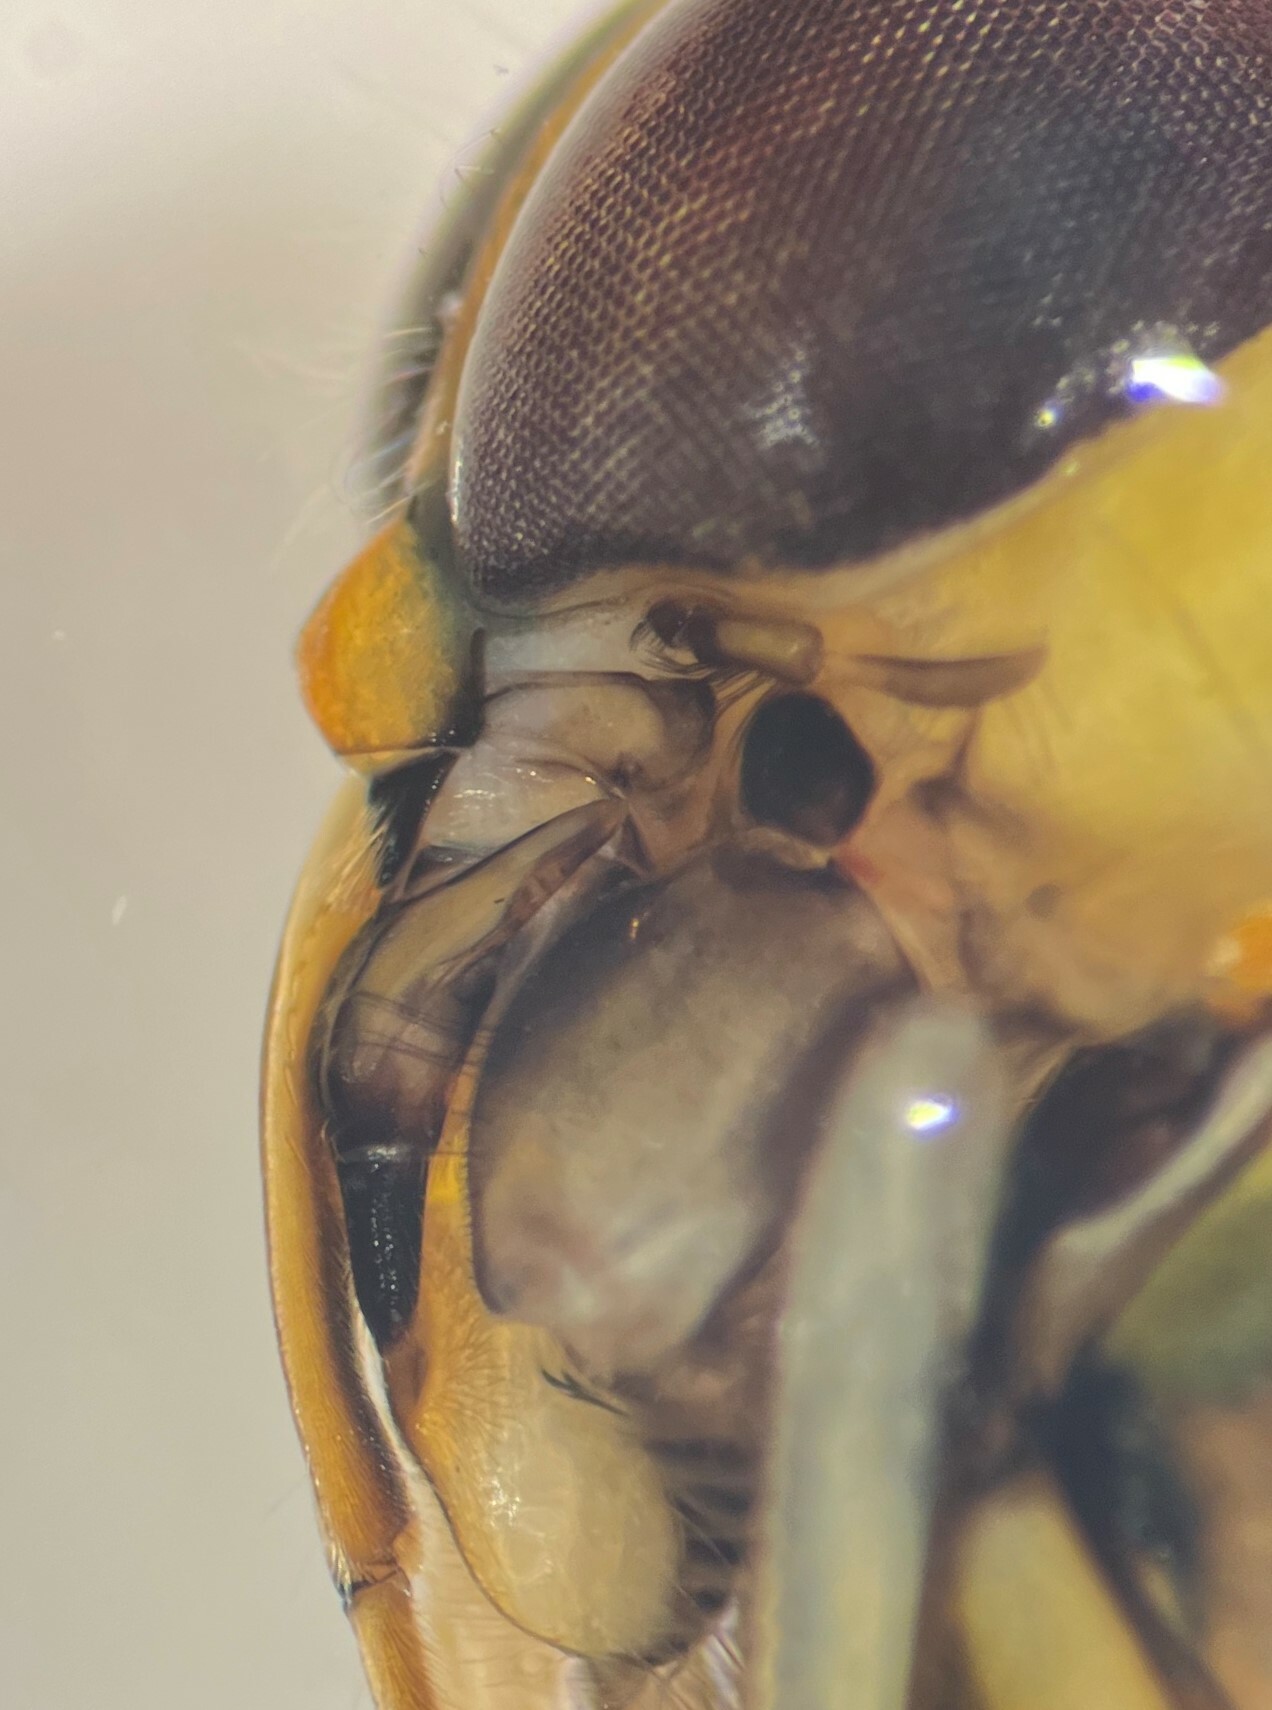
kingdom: Animalia
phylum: Arthropoda
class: Insecta
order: Hemiptera
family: Notonectidae
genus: Buenoa
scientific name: Buenoa arizonis
